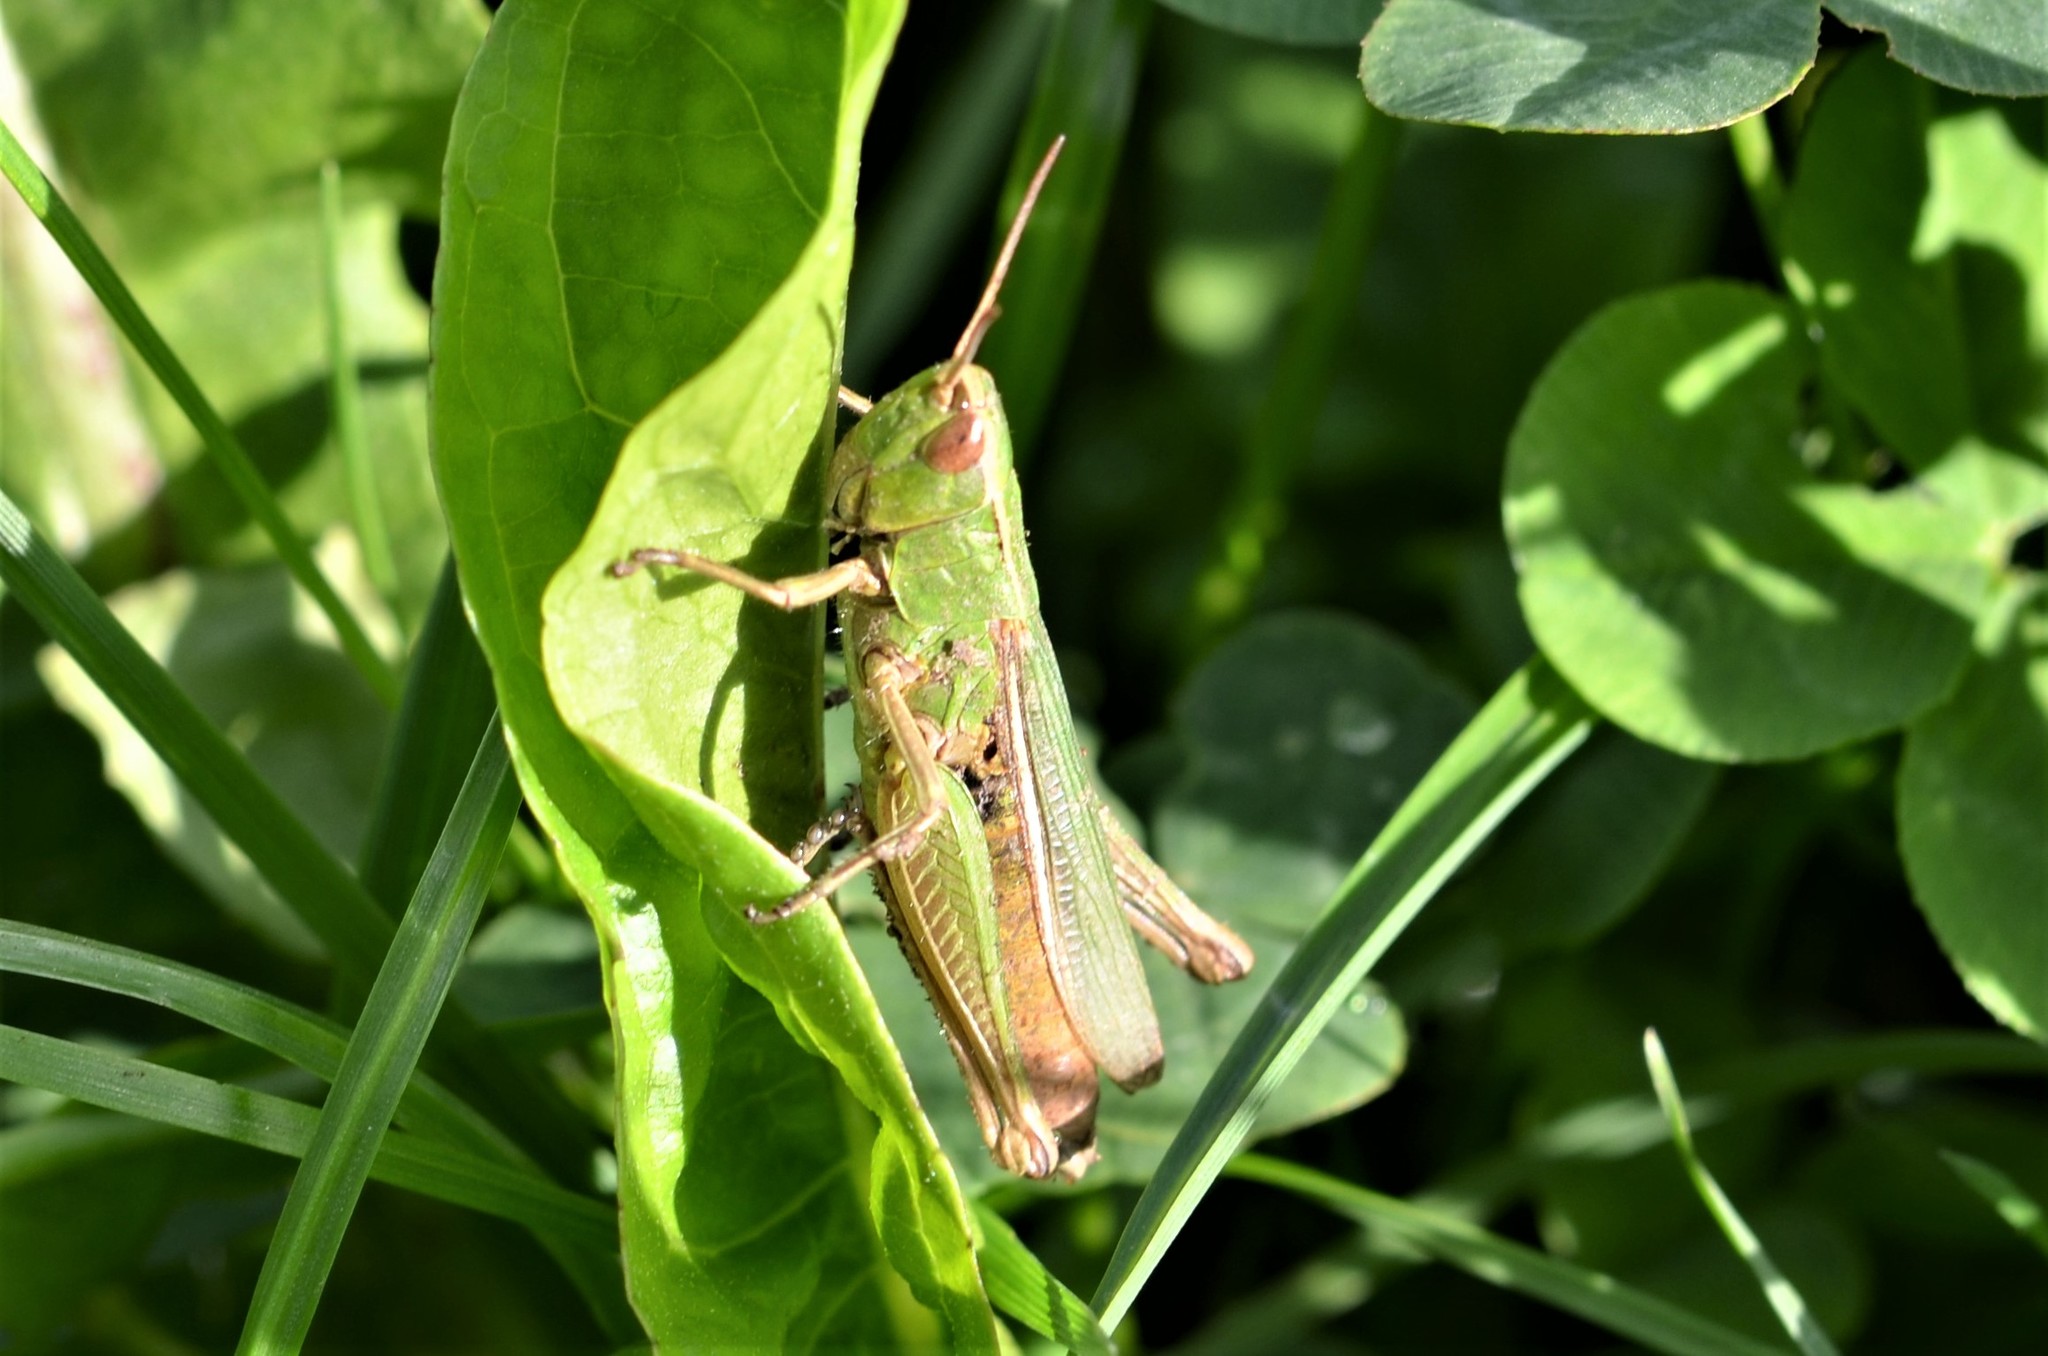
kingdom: Animalia
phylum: Arthropoda
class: Insecta
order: Orthoptera
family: Acrididae
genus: Chorthippus
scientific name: Chorthippus albomarginatus
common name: Lesser marsh grasshopper
